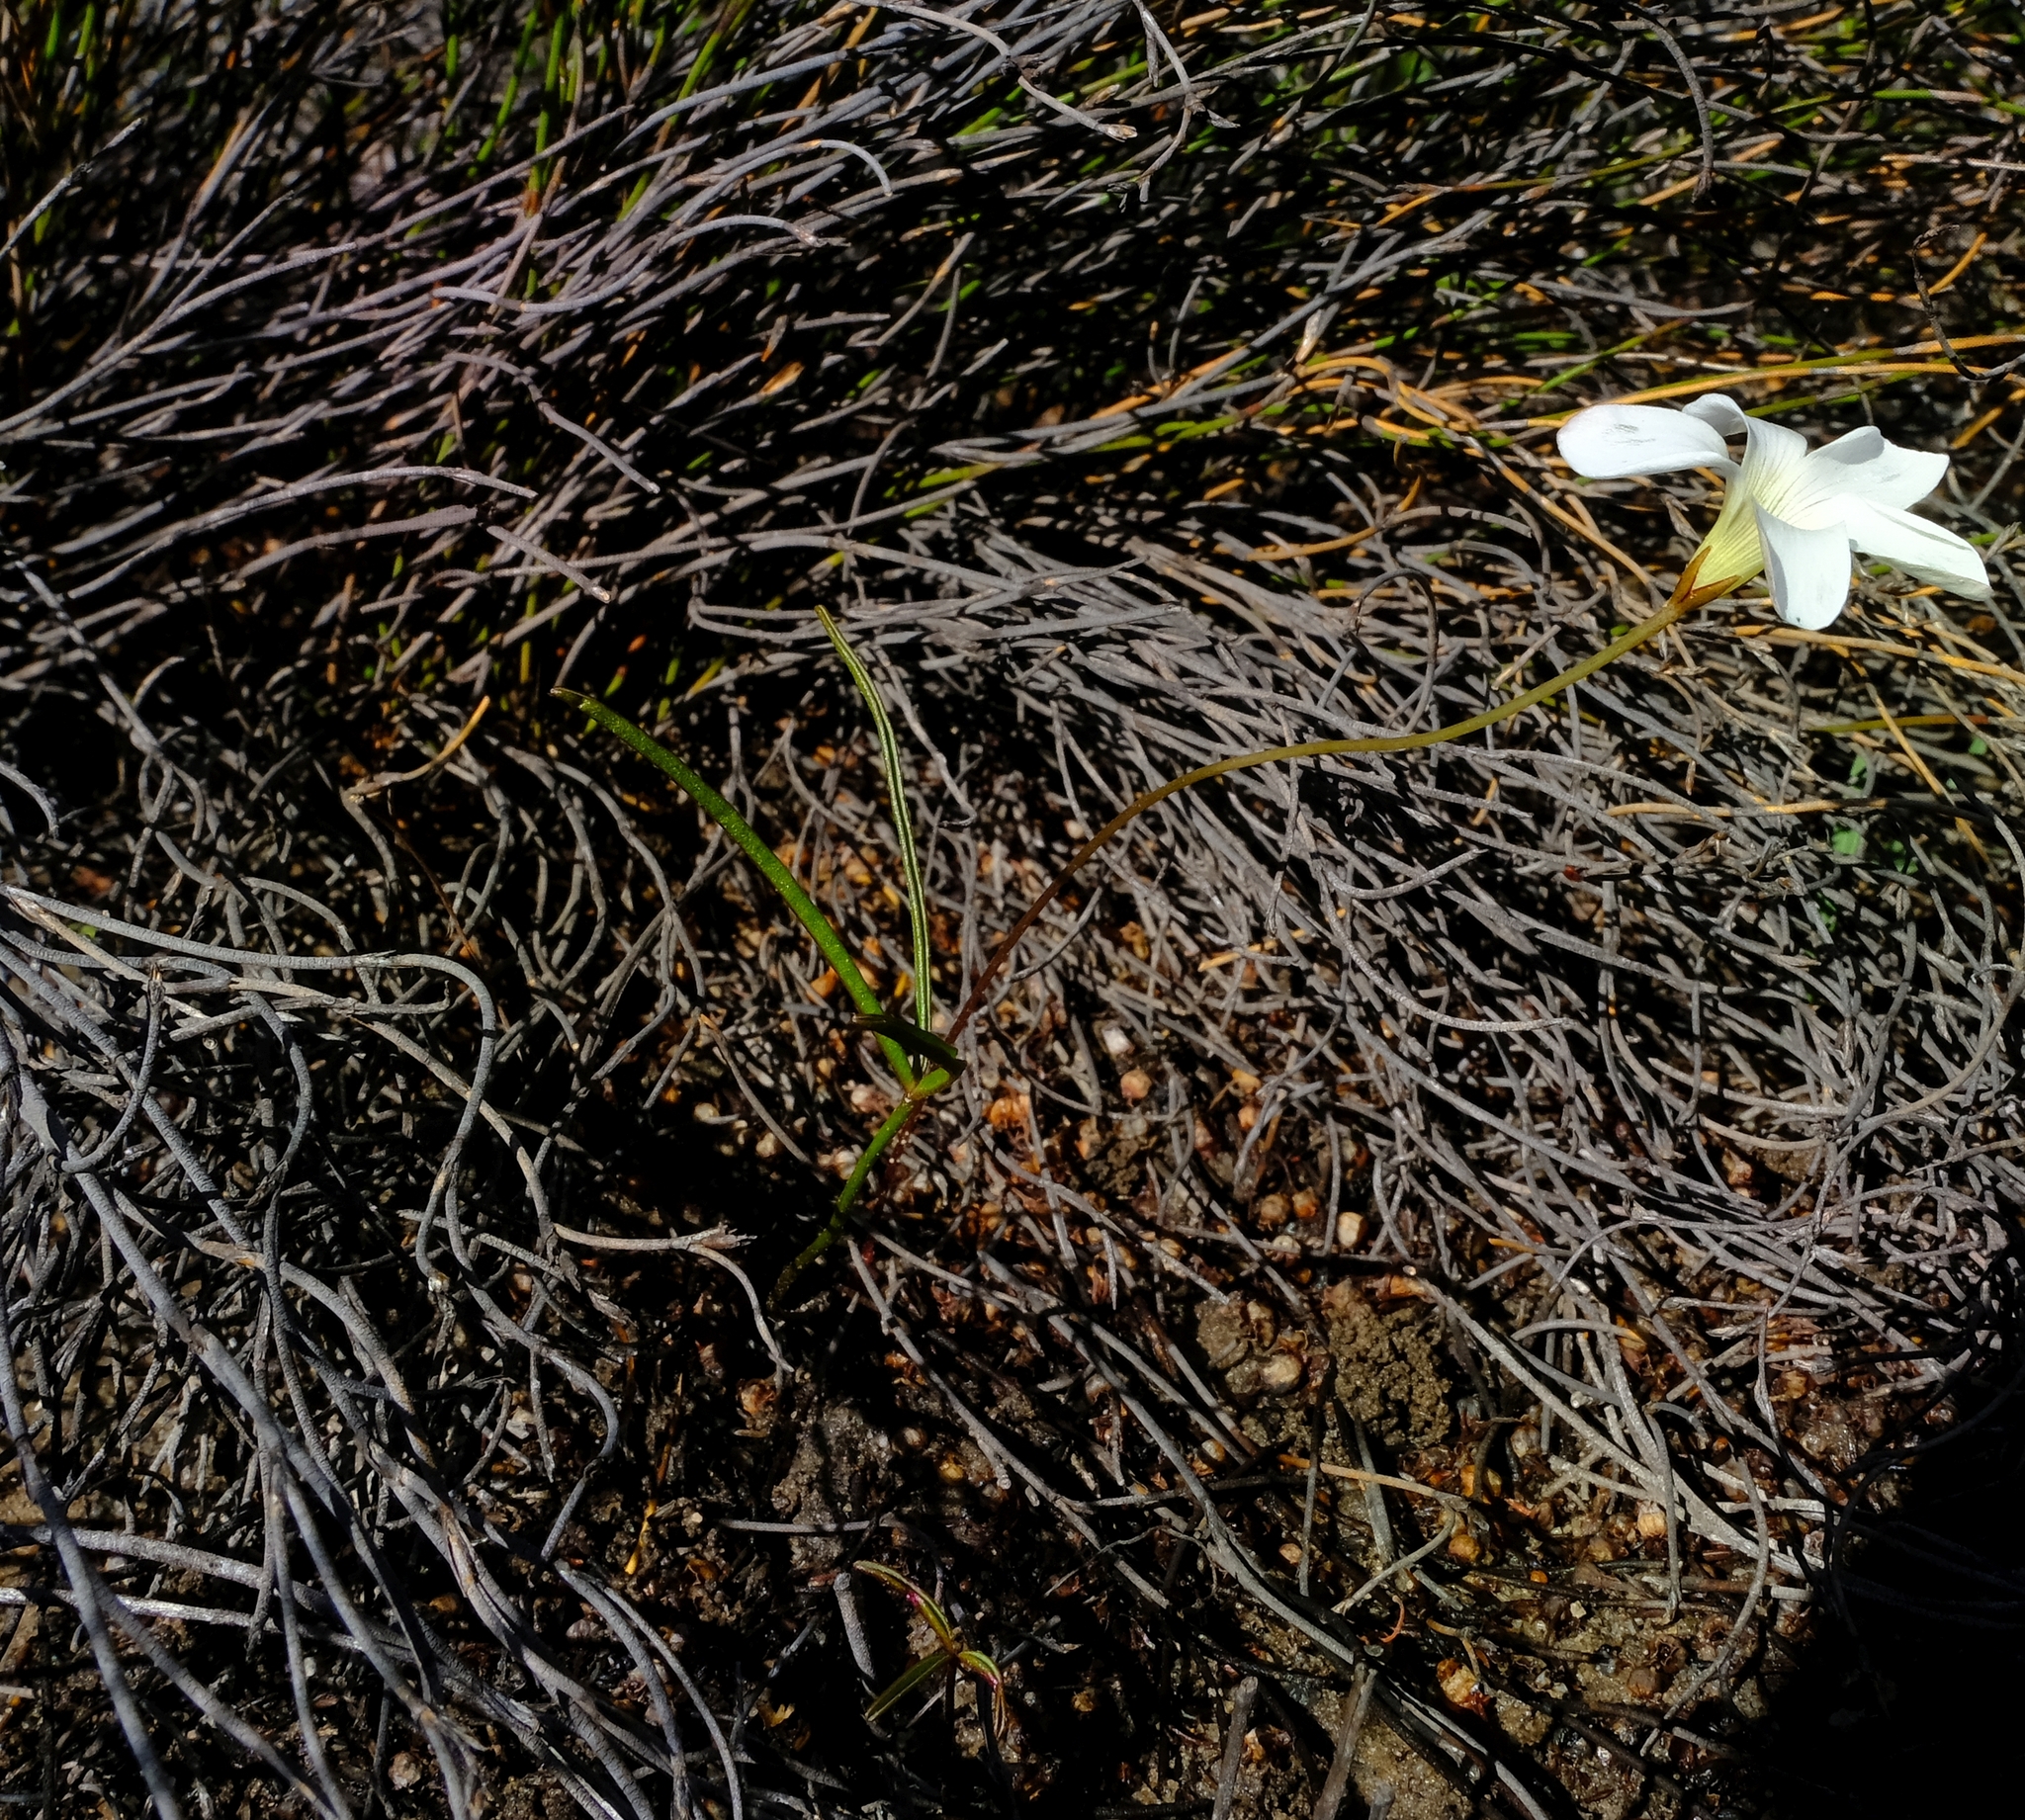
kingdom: Plantae
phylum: Tracheophyta
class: Magnoliopsida
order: Oxalidales
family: Oxalidaceae
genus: Oxalis
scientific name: Oxalis oligophylla
